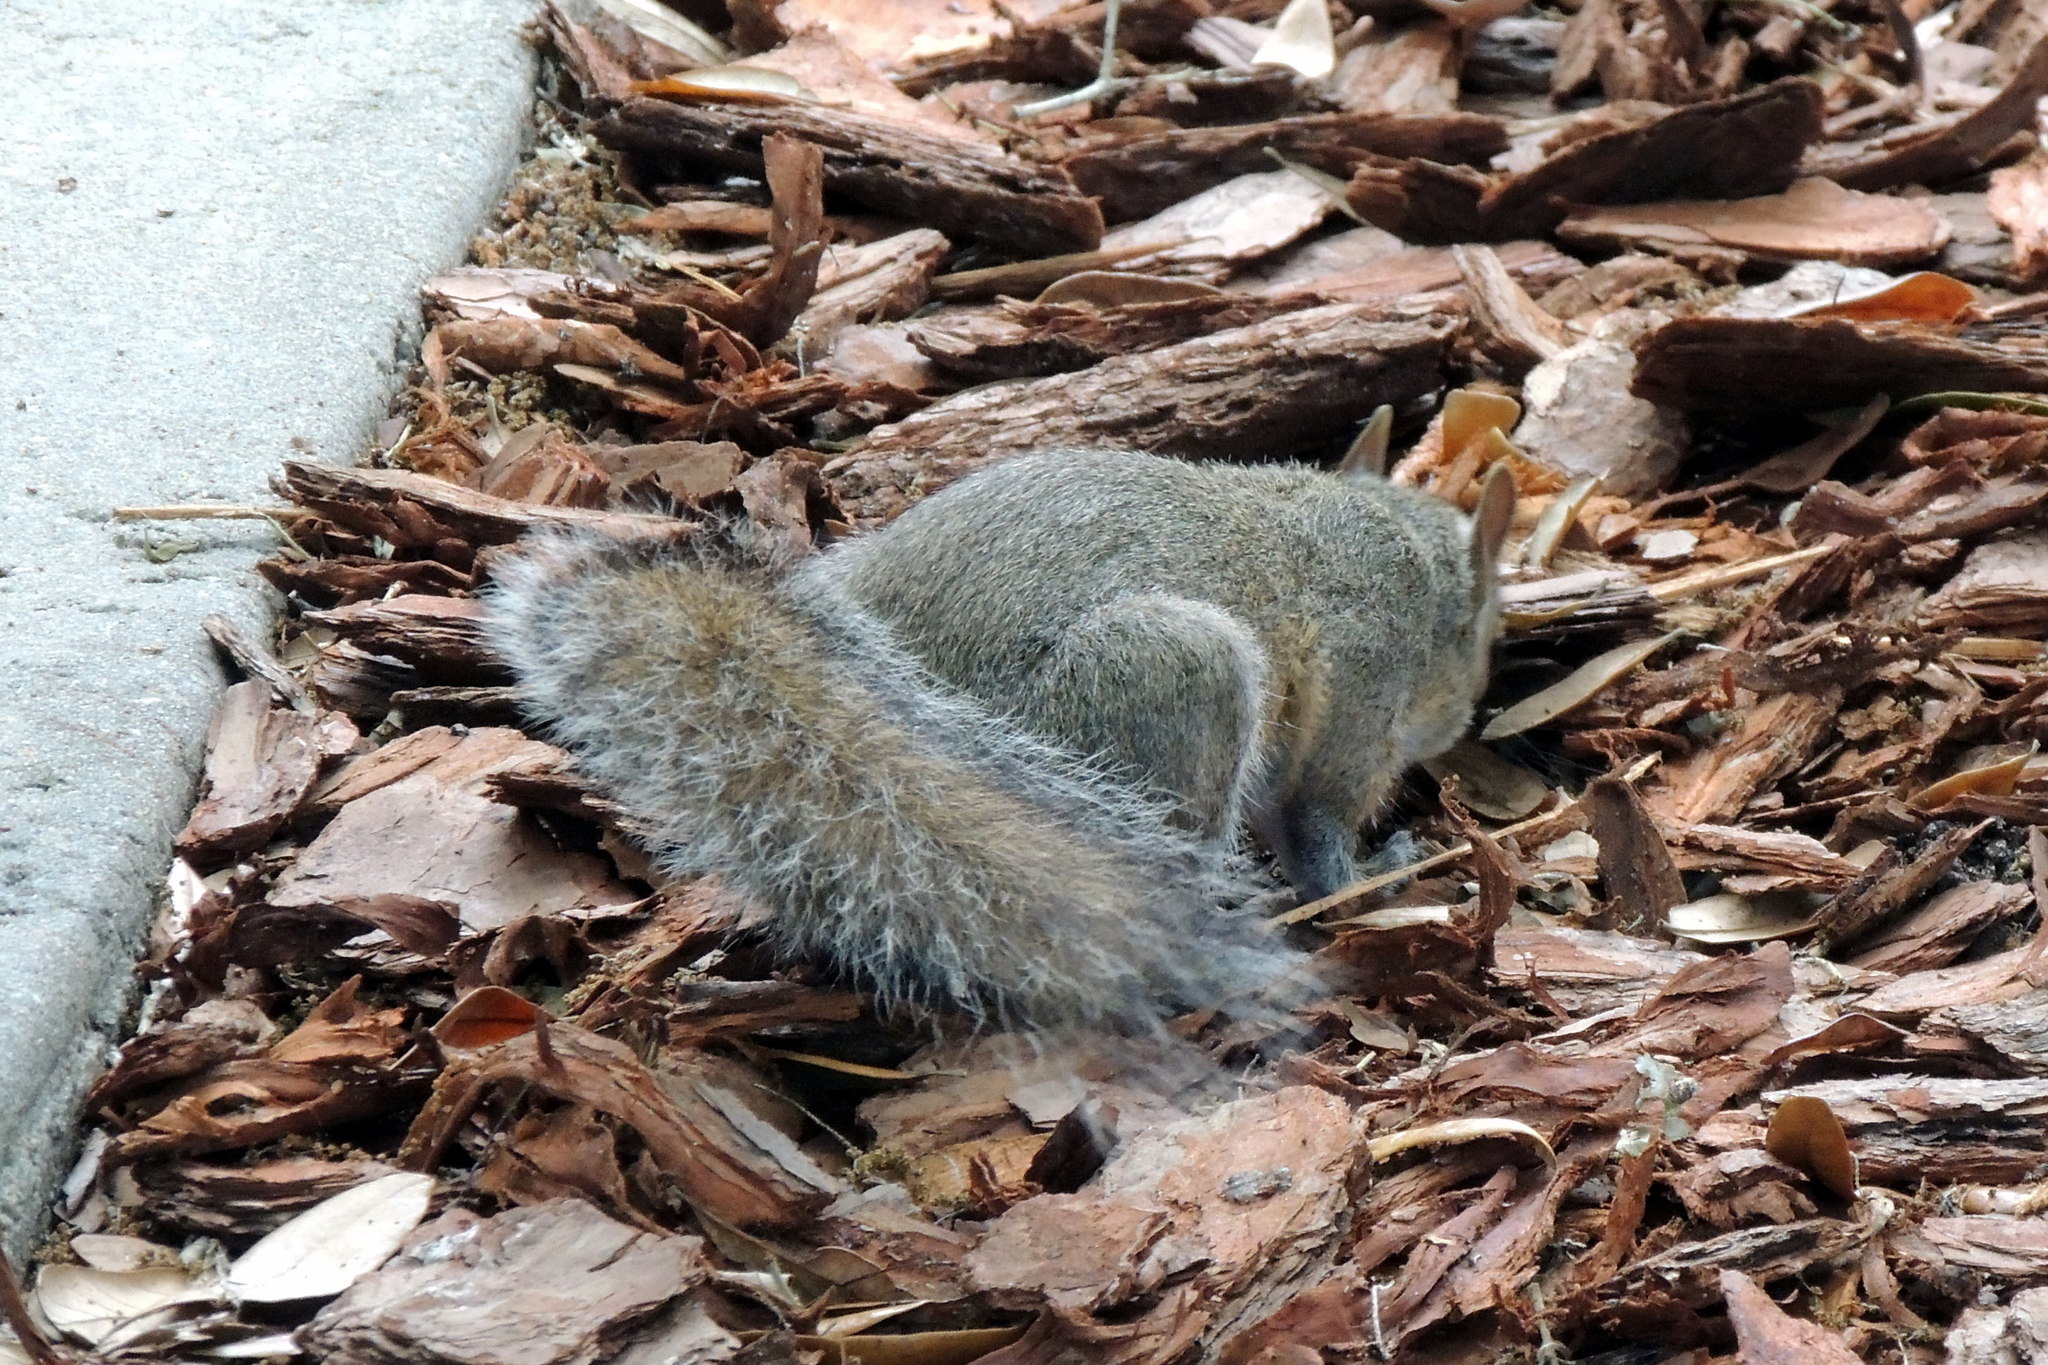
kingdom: Animalia
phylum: Chordata
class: Mammalia
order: Rodentia
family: Sciuridae
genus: Sciurus
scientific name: Sciurus carolinensis
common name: Eastern gray squirrel
